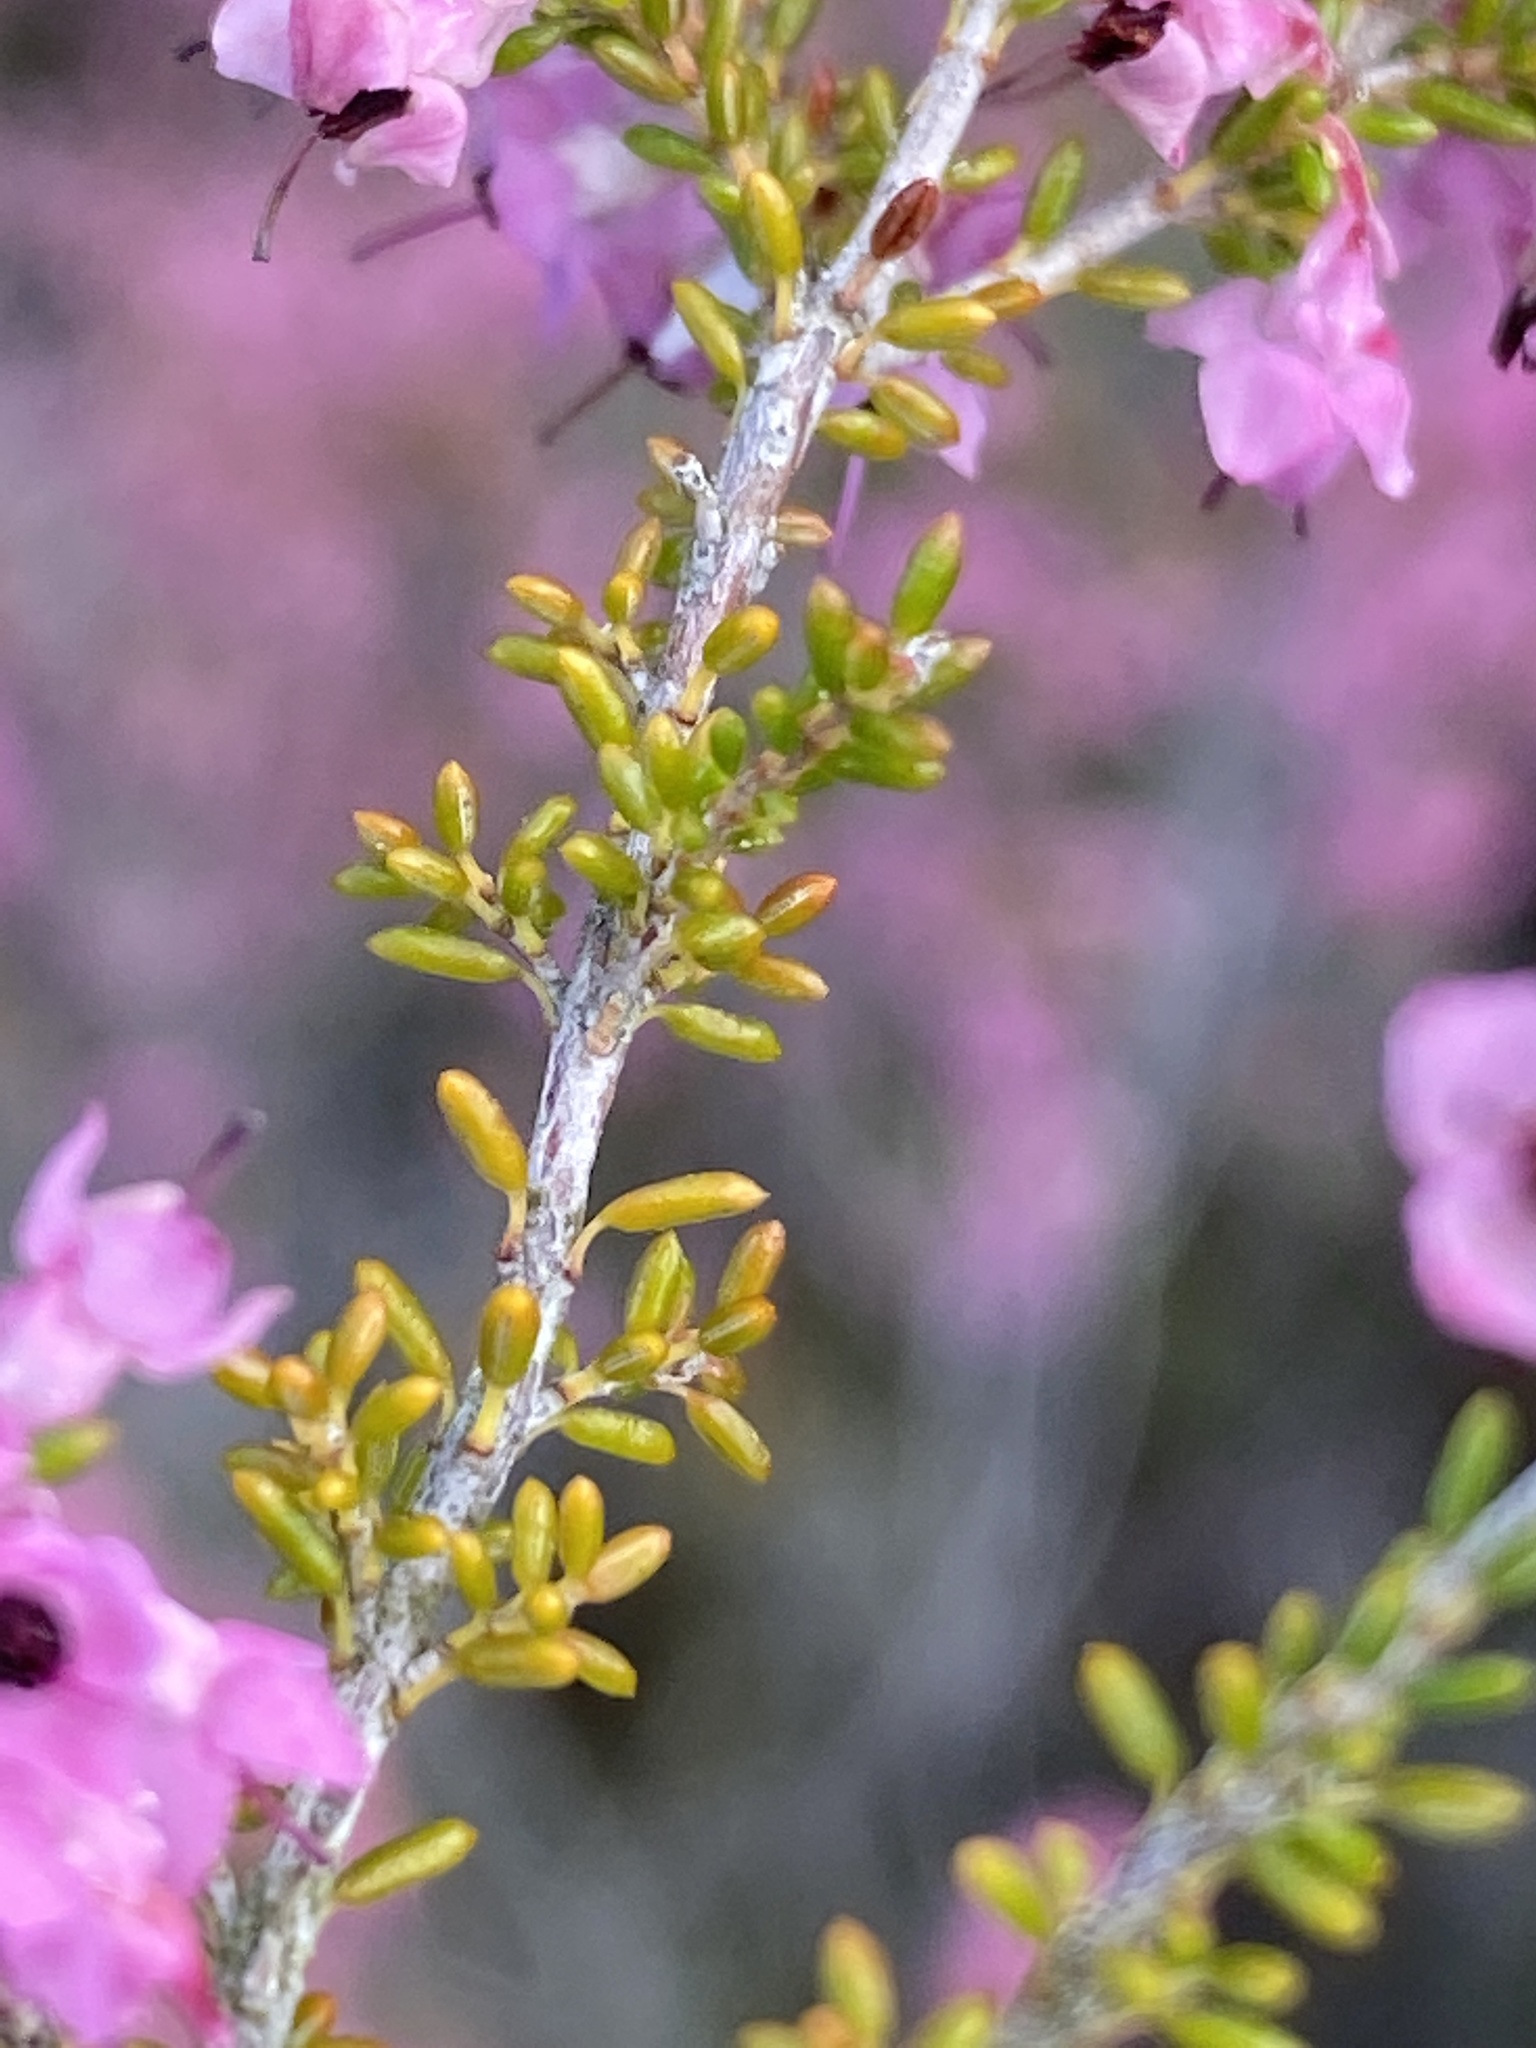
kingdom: Plantae
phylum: Tracheophyta
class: Magnoliopsida
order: Ericales
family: Ericaceae
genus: Erica
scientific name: Erica melanthera
